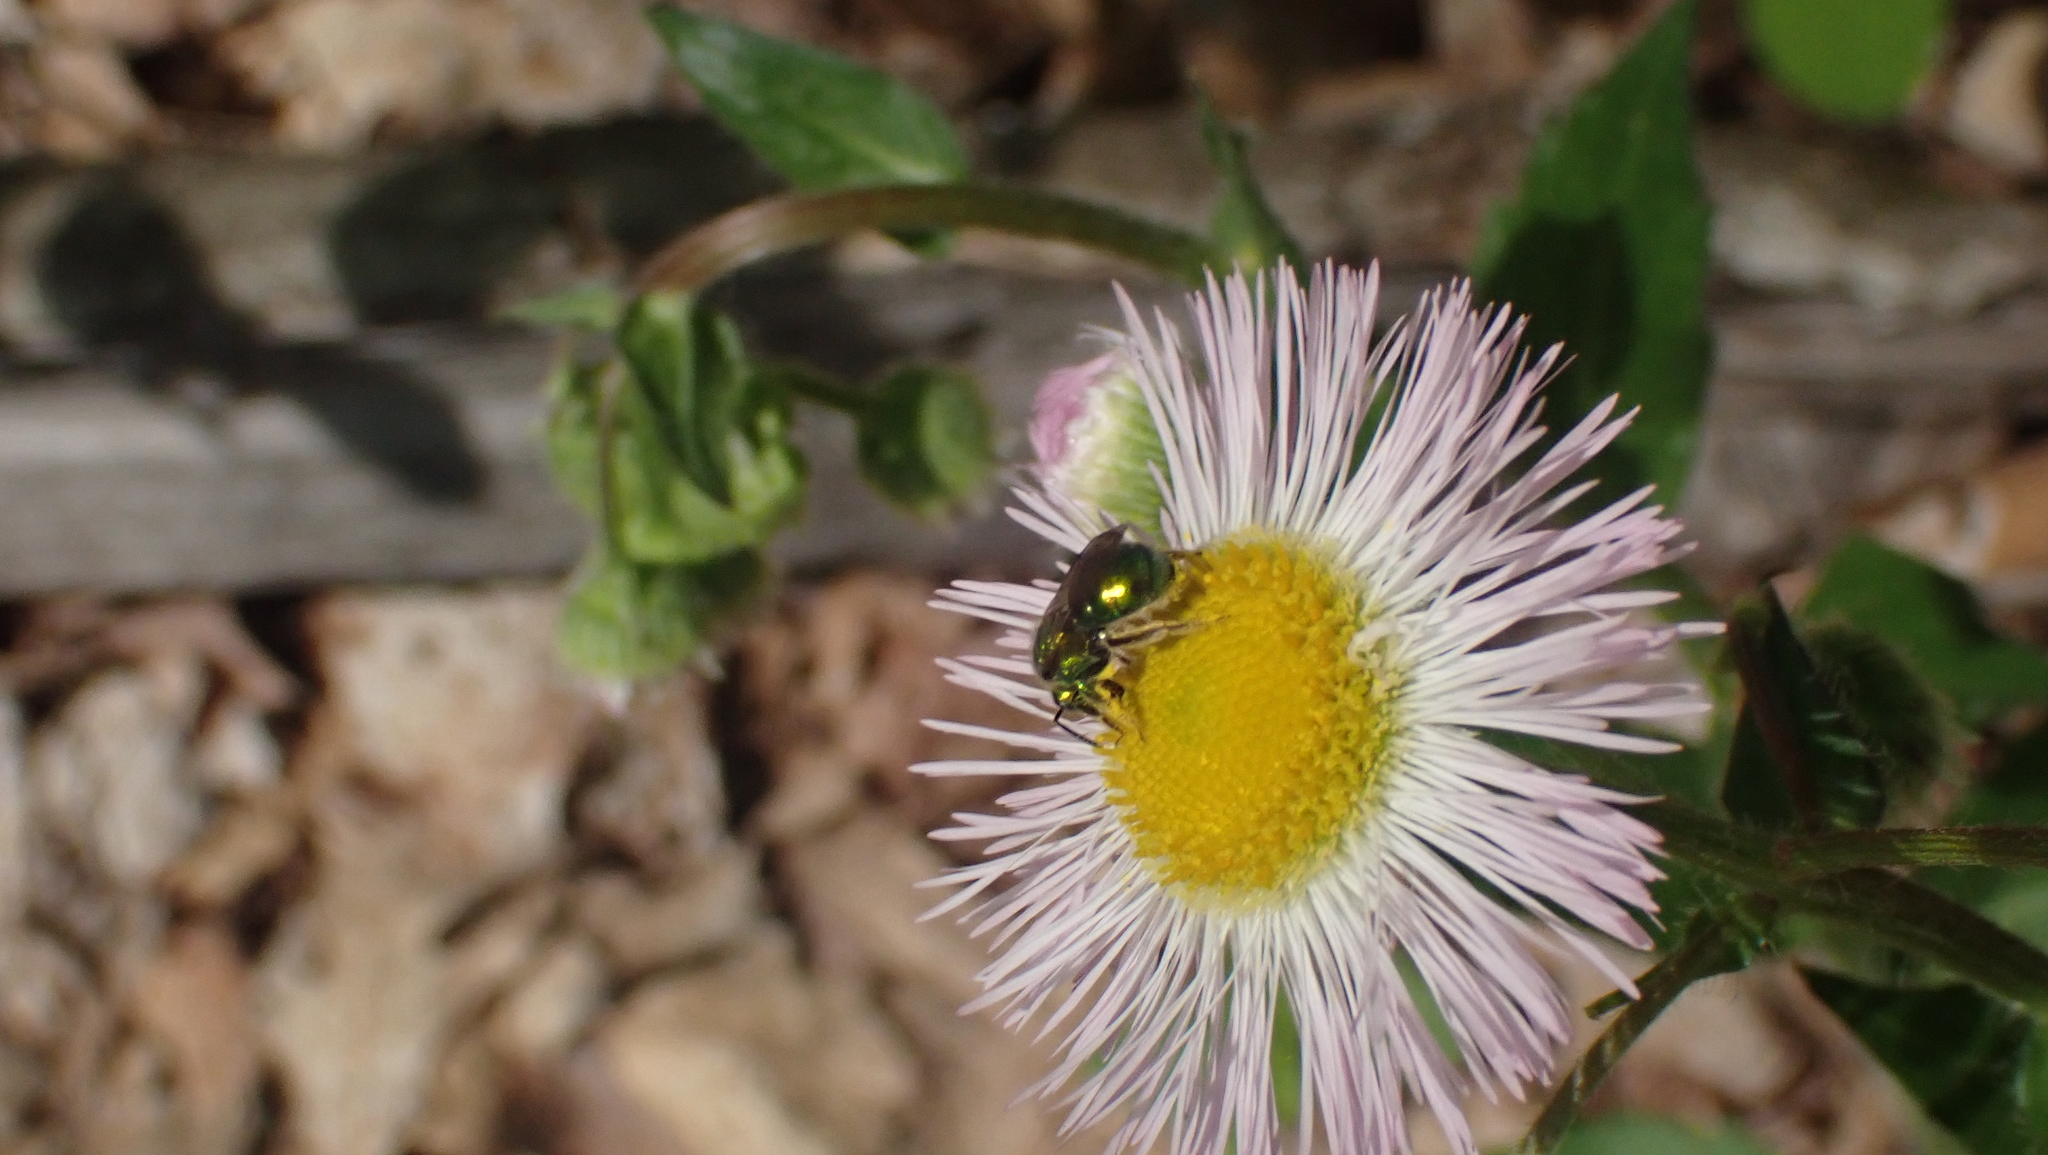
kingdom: Animalia
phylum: Arthropoda
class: Insecta
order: Hymenoptera
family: Halictidae
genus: Augochlora
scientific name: Augochlora pura
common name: Pure green sweat bee
